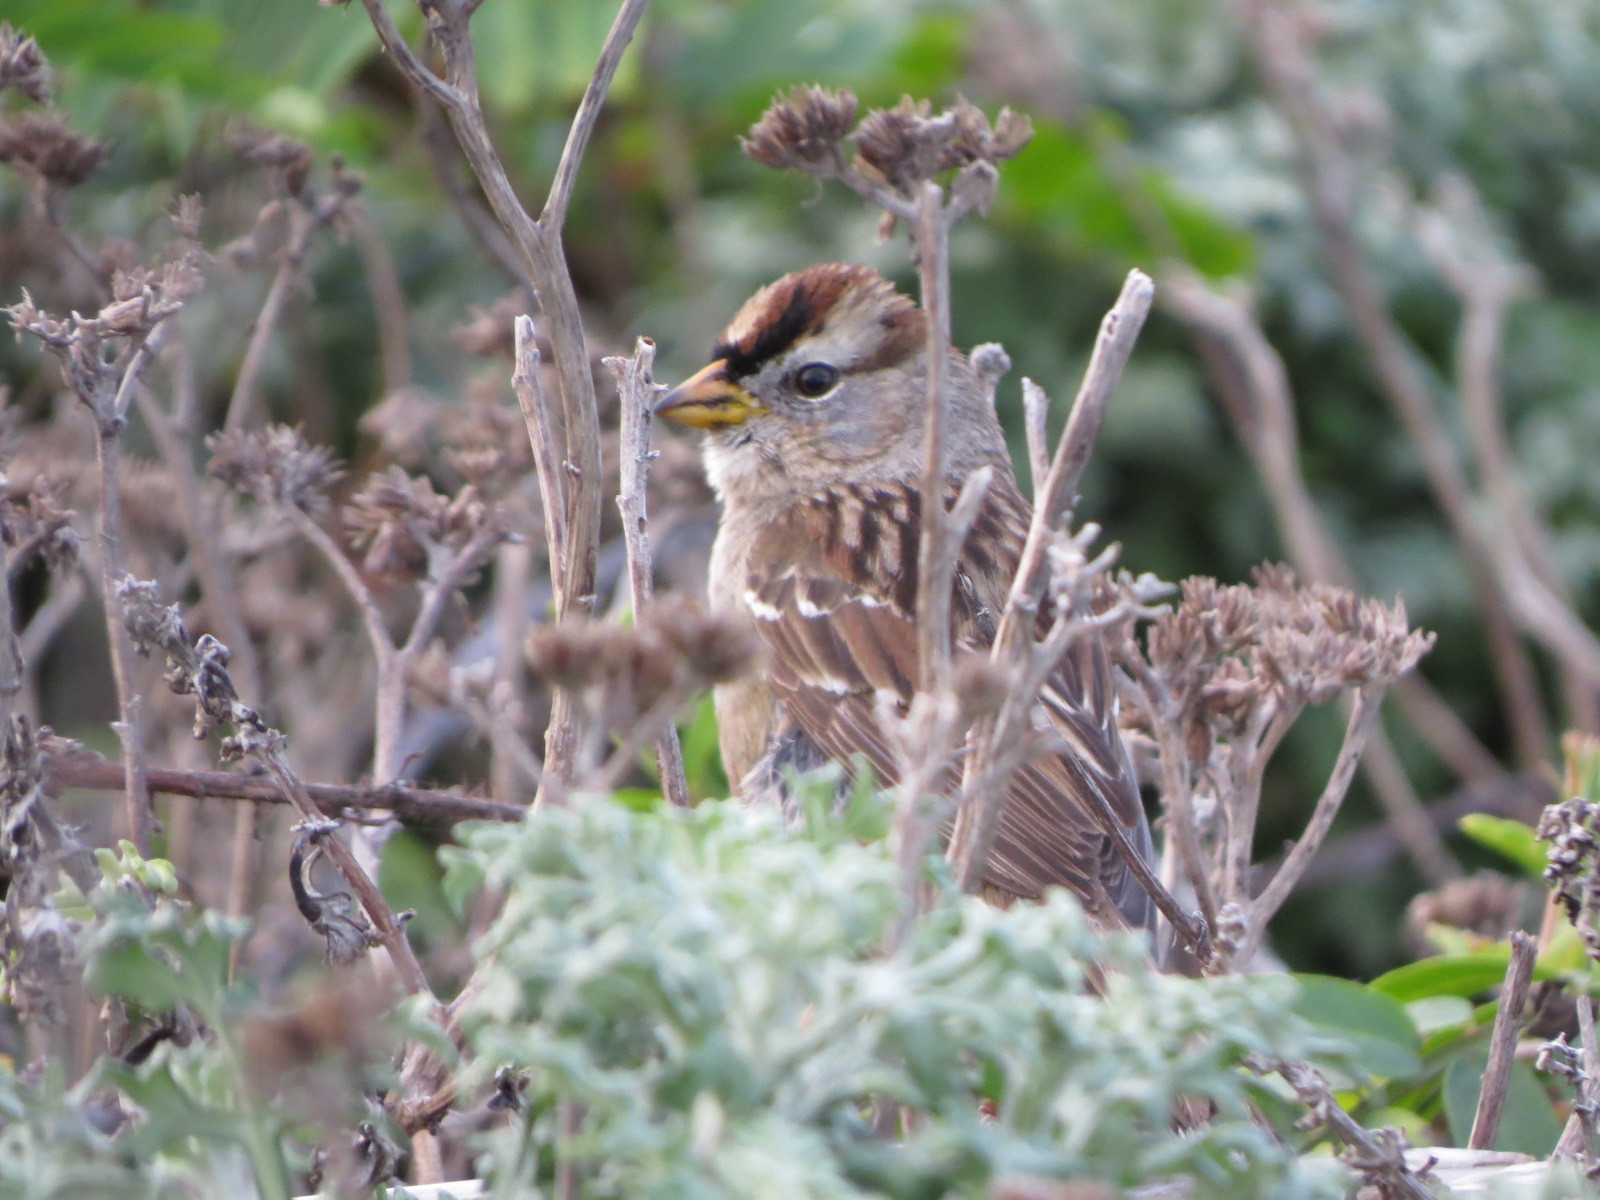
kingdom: Animalia
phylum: Chordata
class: Aves
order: Passeriformes
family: Passerellidae
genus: Zonotrichia
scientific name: Zonotrichia leucophrys
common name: White-crowned sparrow
